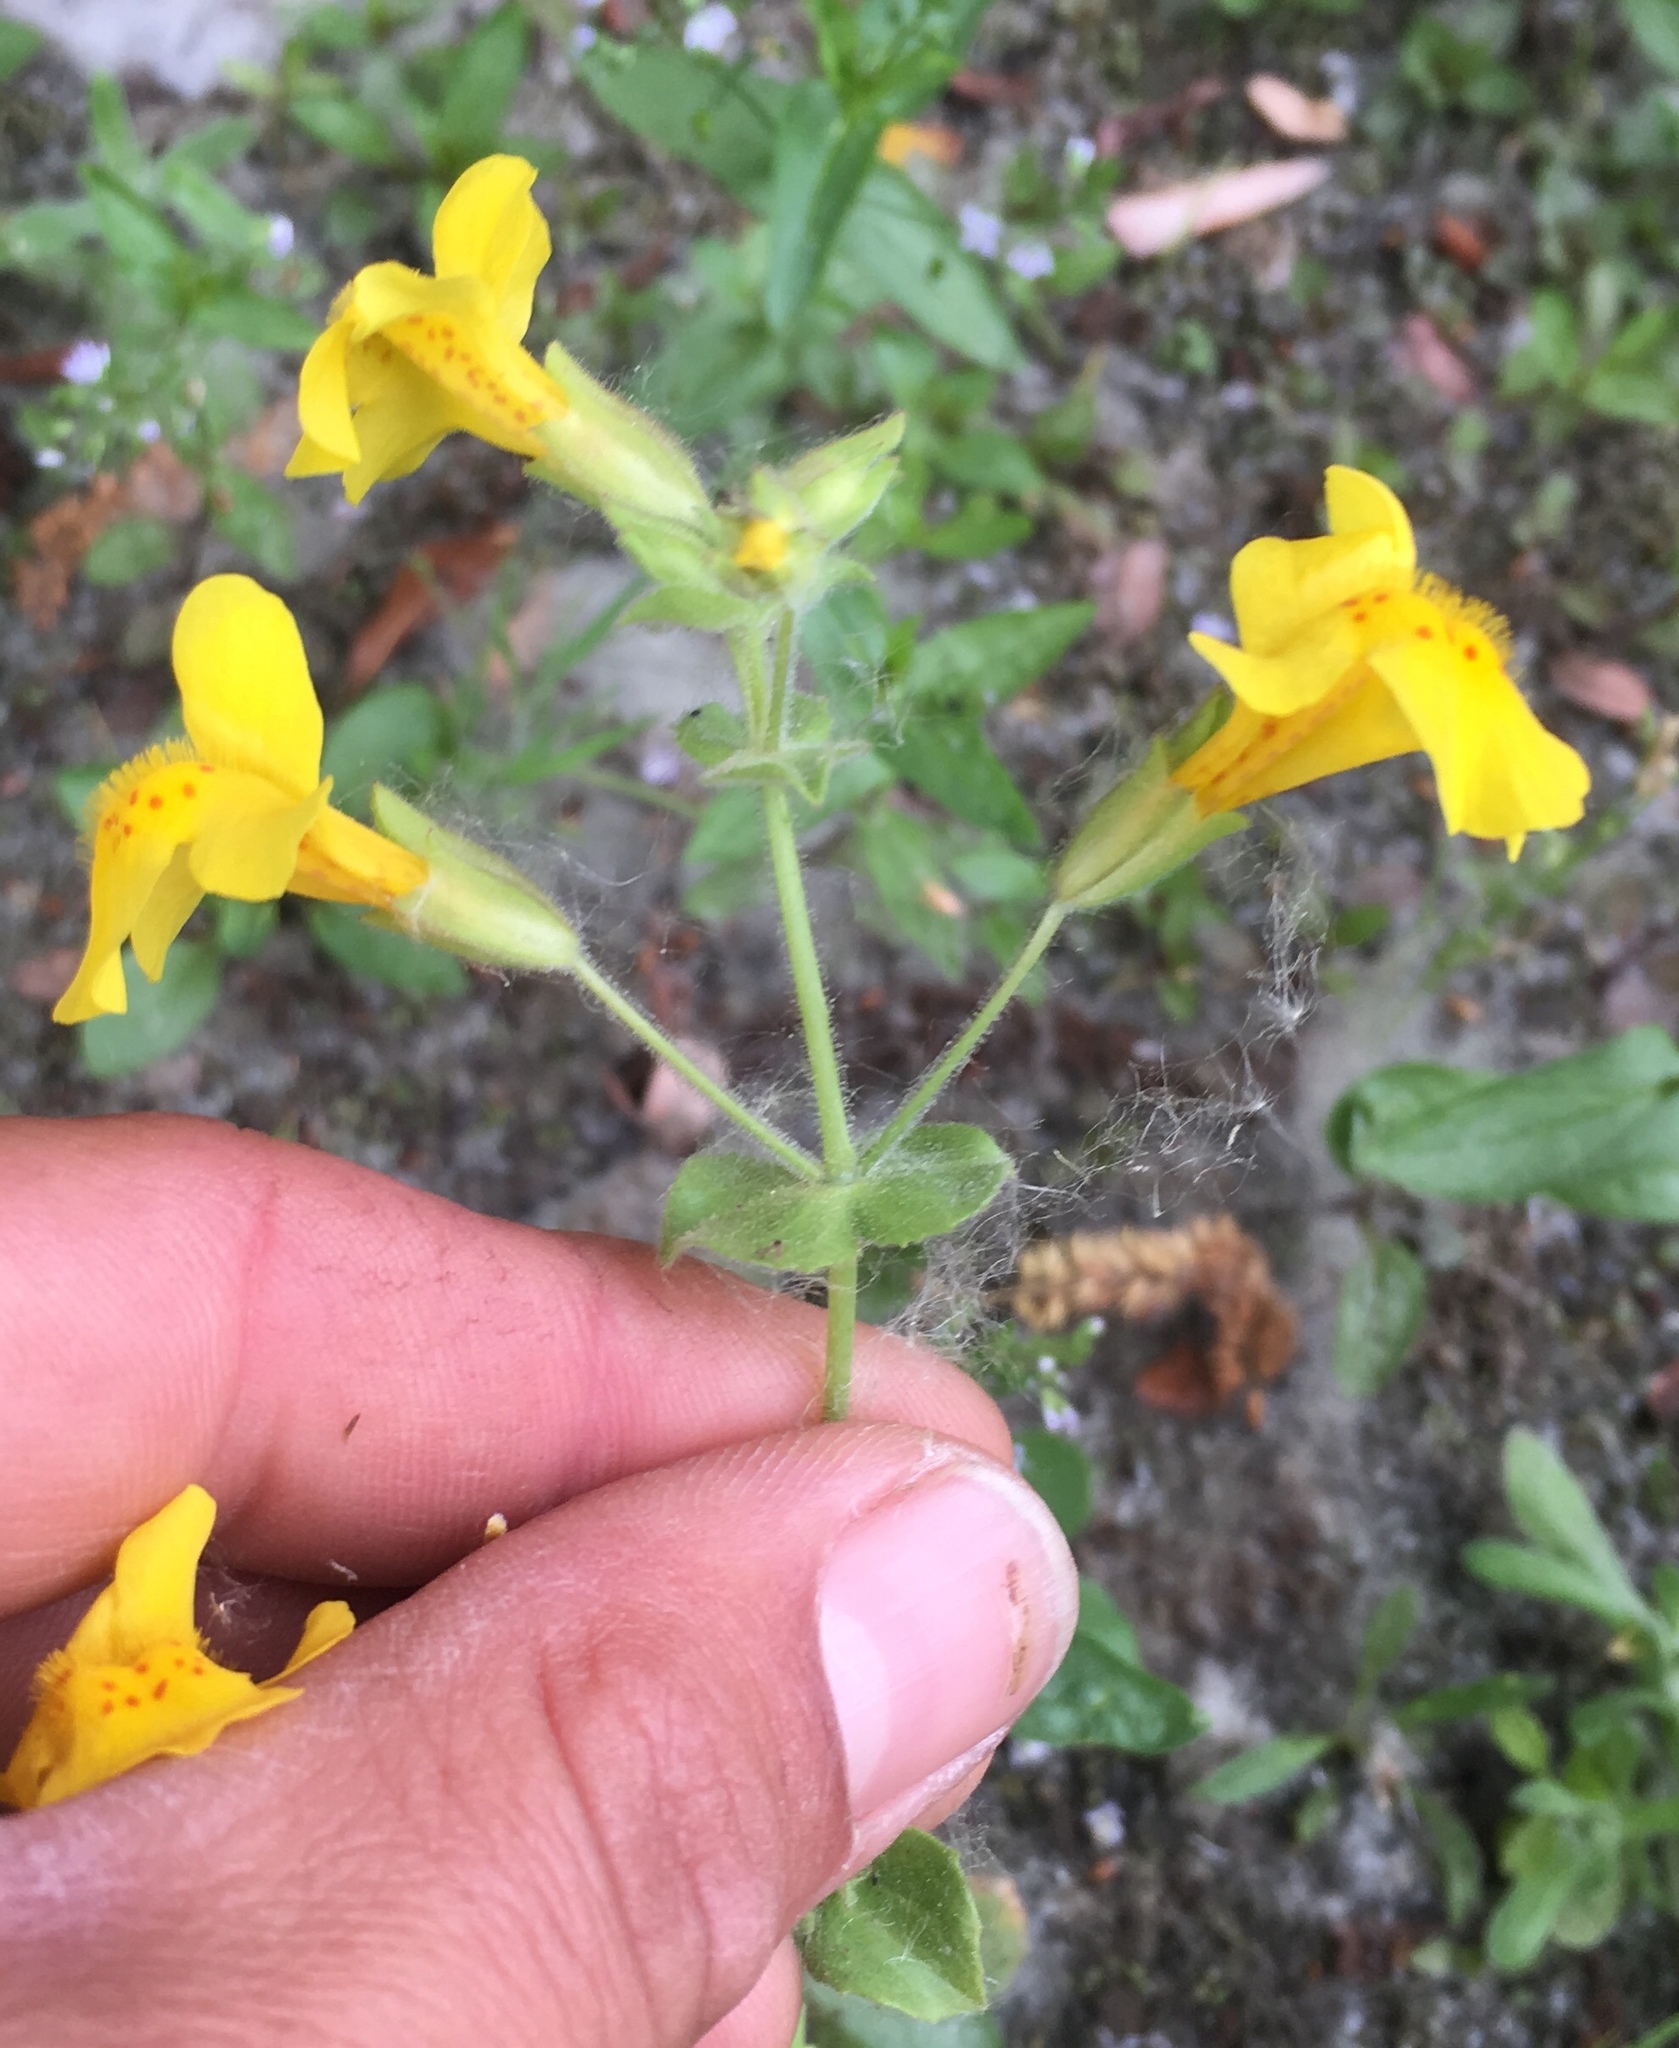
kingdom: Plantae
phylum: Tracheophyta
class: Magnoliopsida
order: Lamiales
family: Phrymaceae
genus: Erythranthe
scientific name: Erythranthe guttata
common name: Monkeyflower
